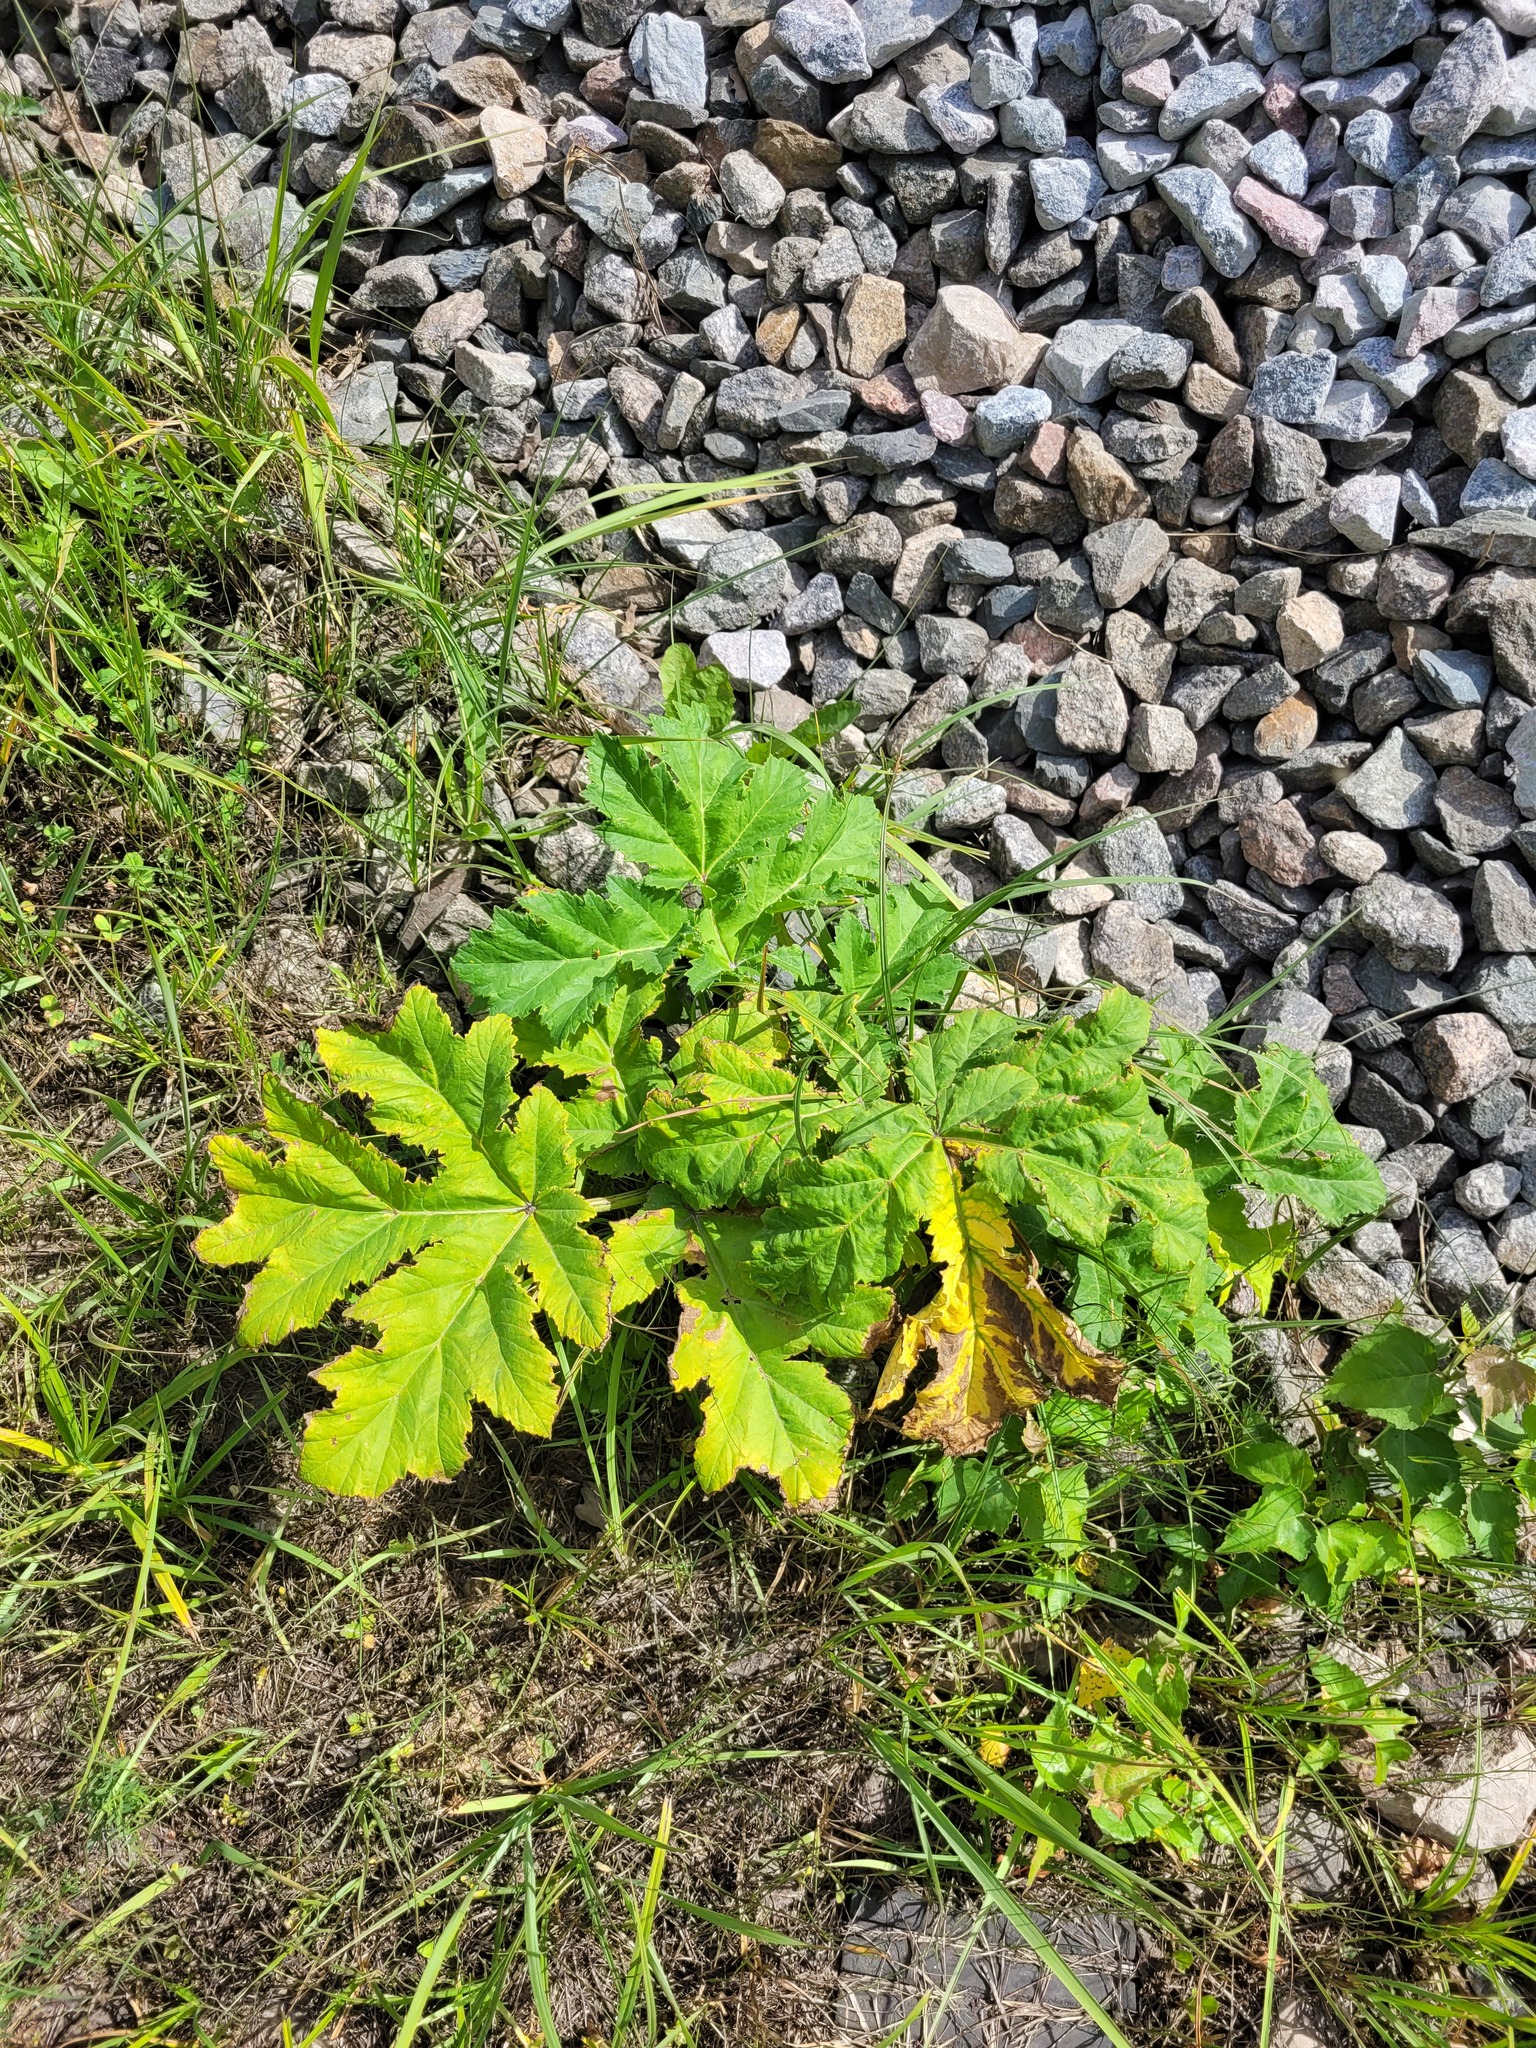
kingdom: Plantae
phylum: Tracheophyta
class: Magnoliopsida
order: Apiales
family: Apiaceae
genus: Heracleum
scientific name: Heracleum sosnowskyi
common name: Sosnowsky's hogweed
